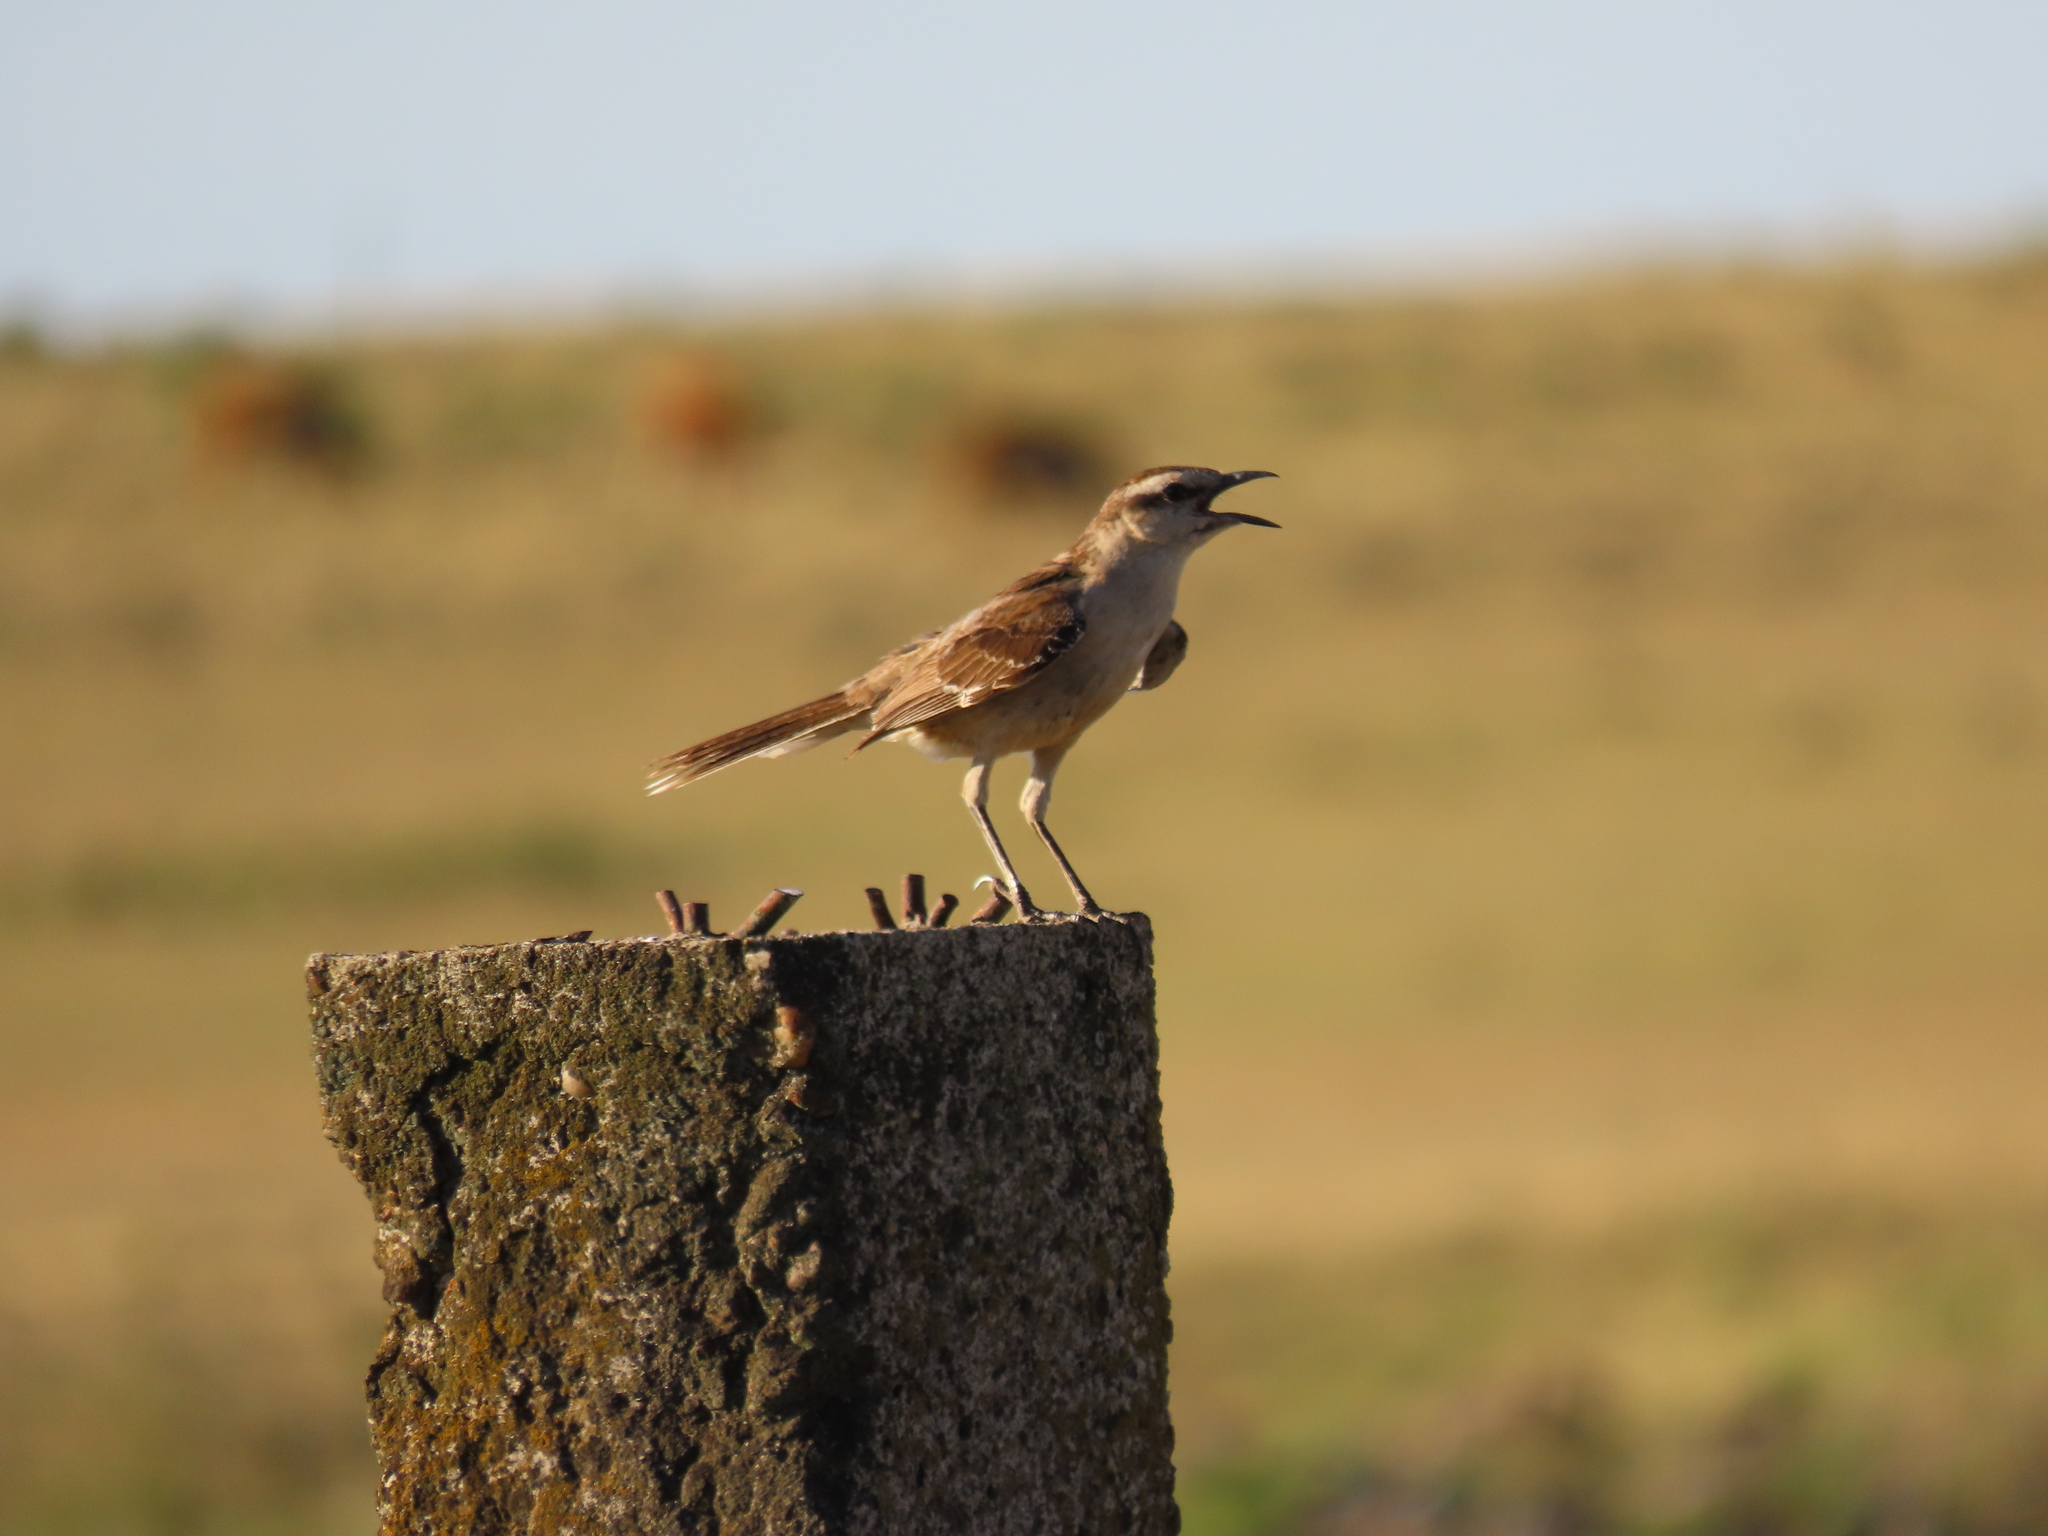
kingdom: Animalia
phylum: Chordata
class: Aves
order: Passeriformes
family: Mimidae
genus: Mimus
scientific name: Mimus saturninus
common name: Chalk-browed mockingbird
